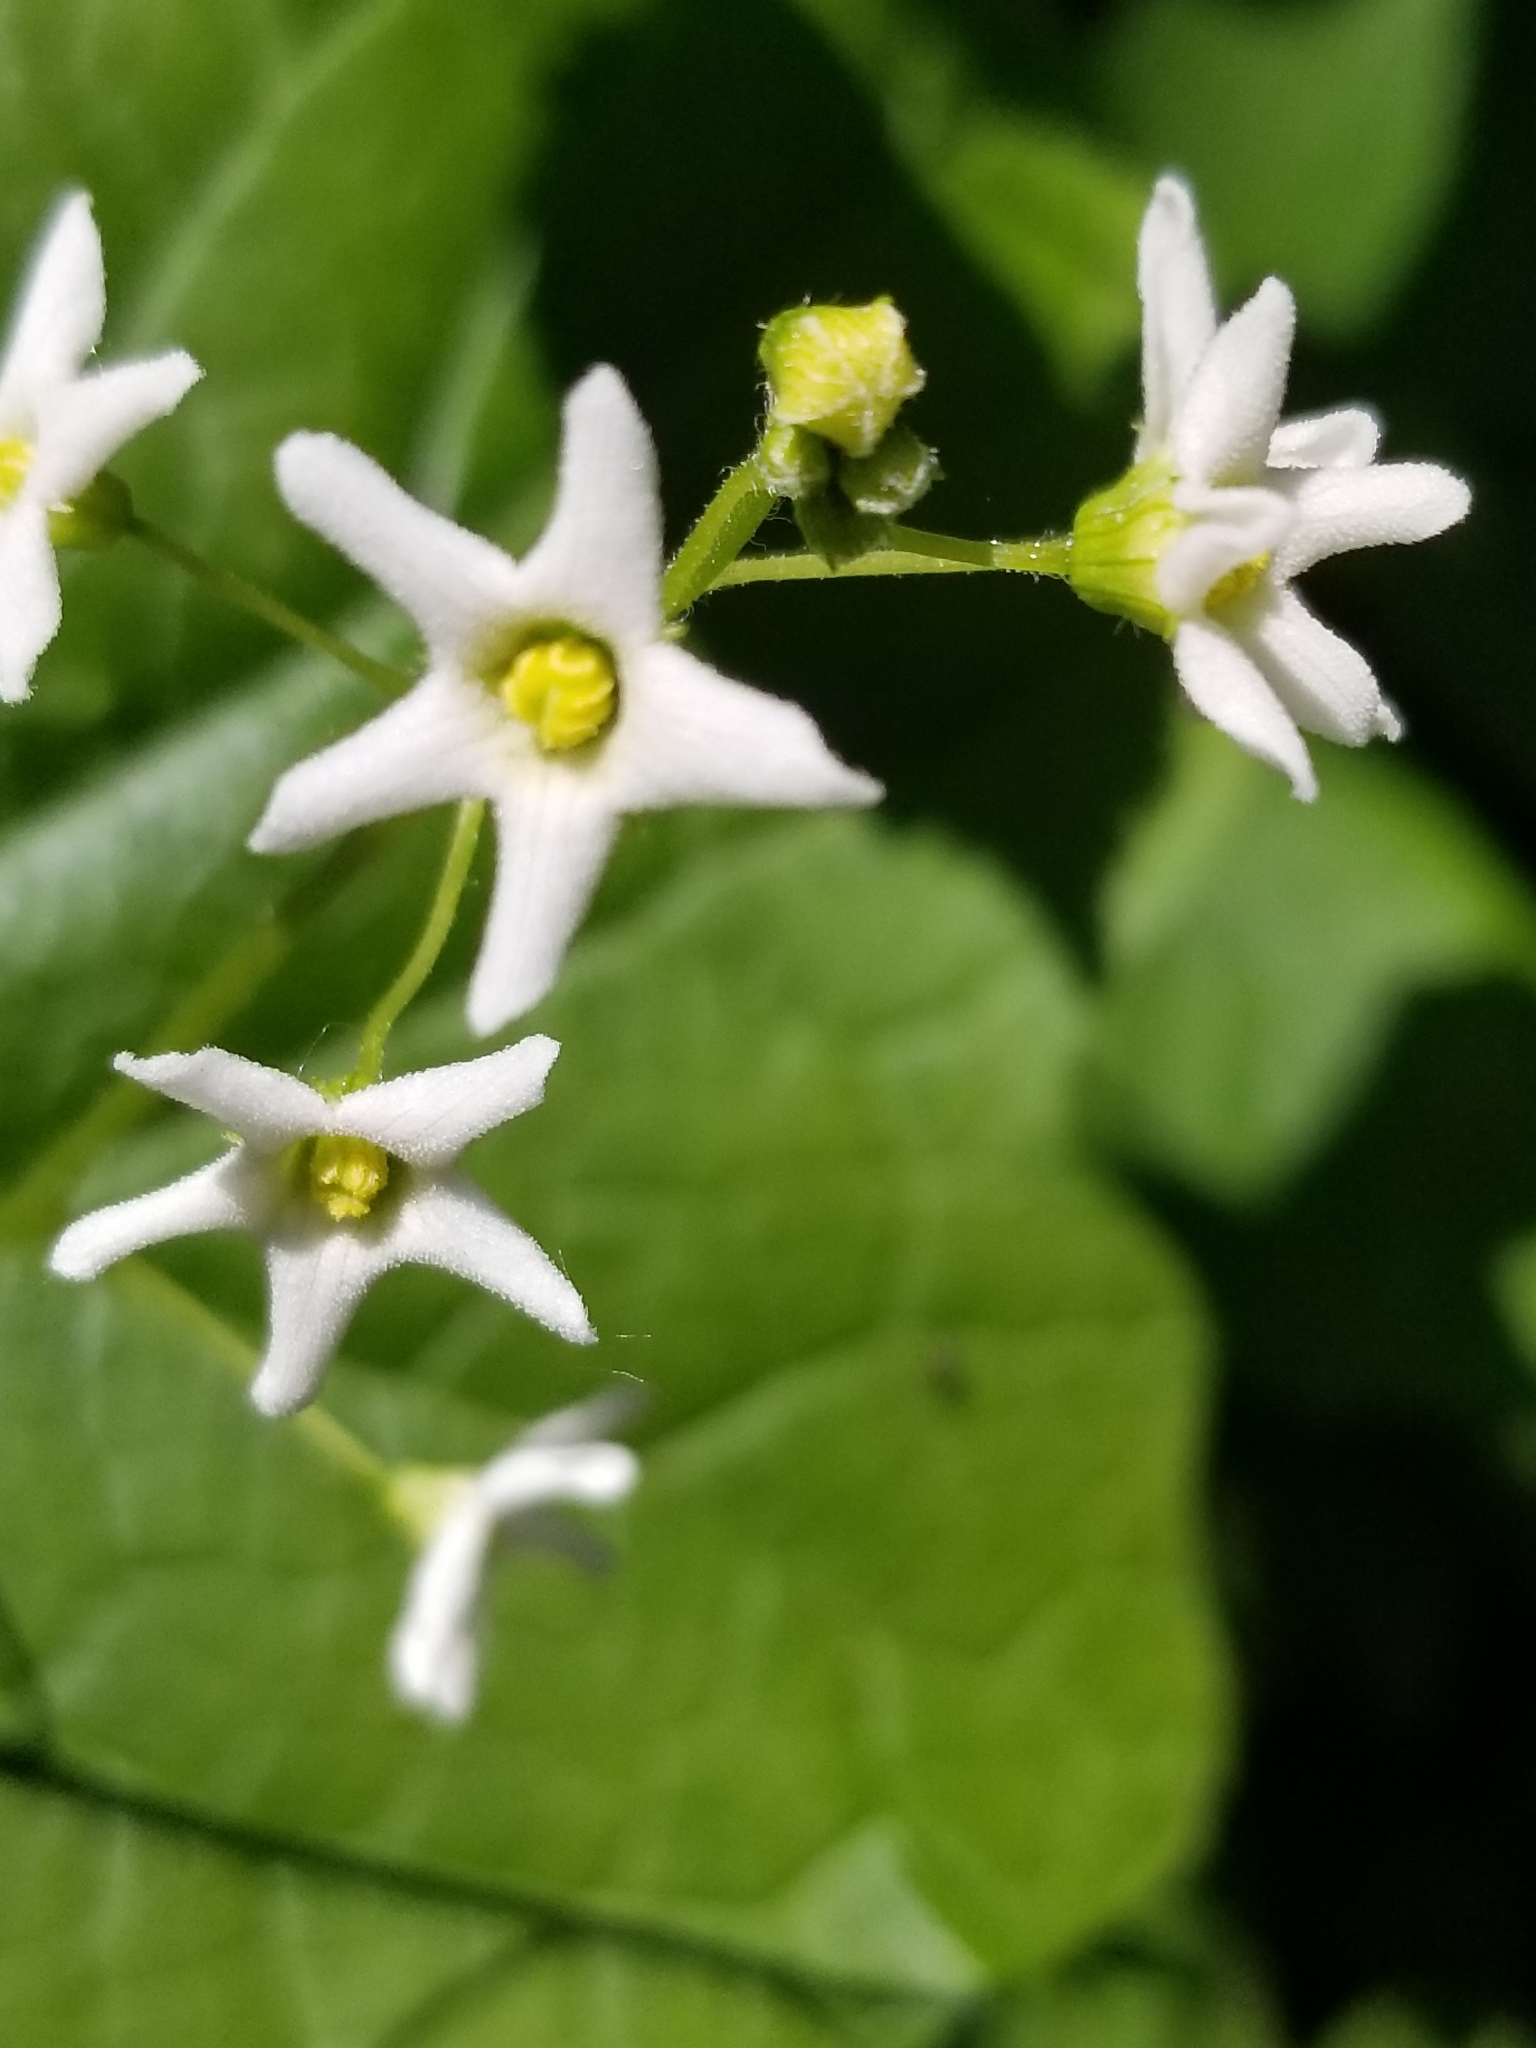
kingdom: Plantae
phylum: Tracheophyta
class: Magnoliopsida
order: Cucurbitales
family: Cucurbitaceae
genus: Marah
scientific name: Marah oregana
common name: Coastal manroot
